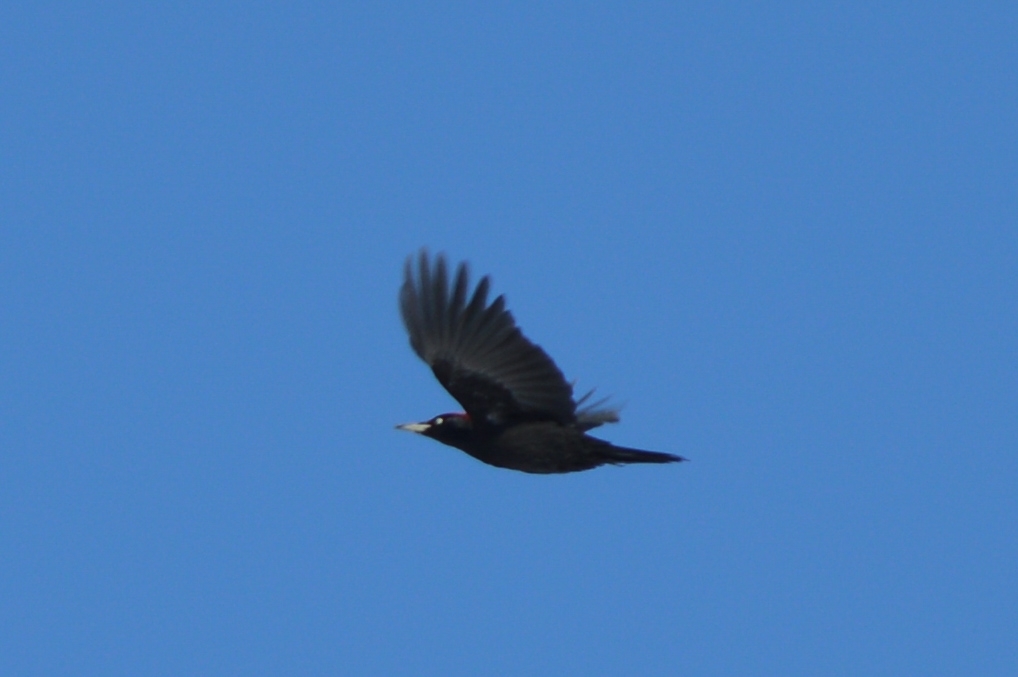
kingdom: Animalia
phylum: Chordata
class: Aves
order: Piciformes
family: Picidae
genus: Dryocopus
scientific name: Dryocopus martius
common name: Black woodpecker
